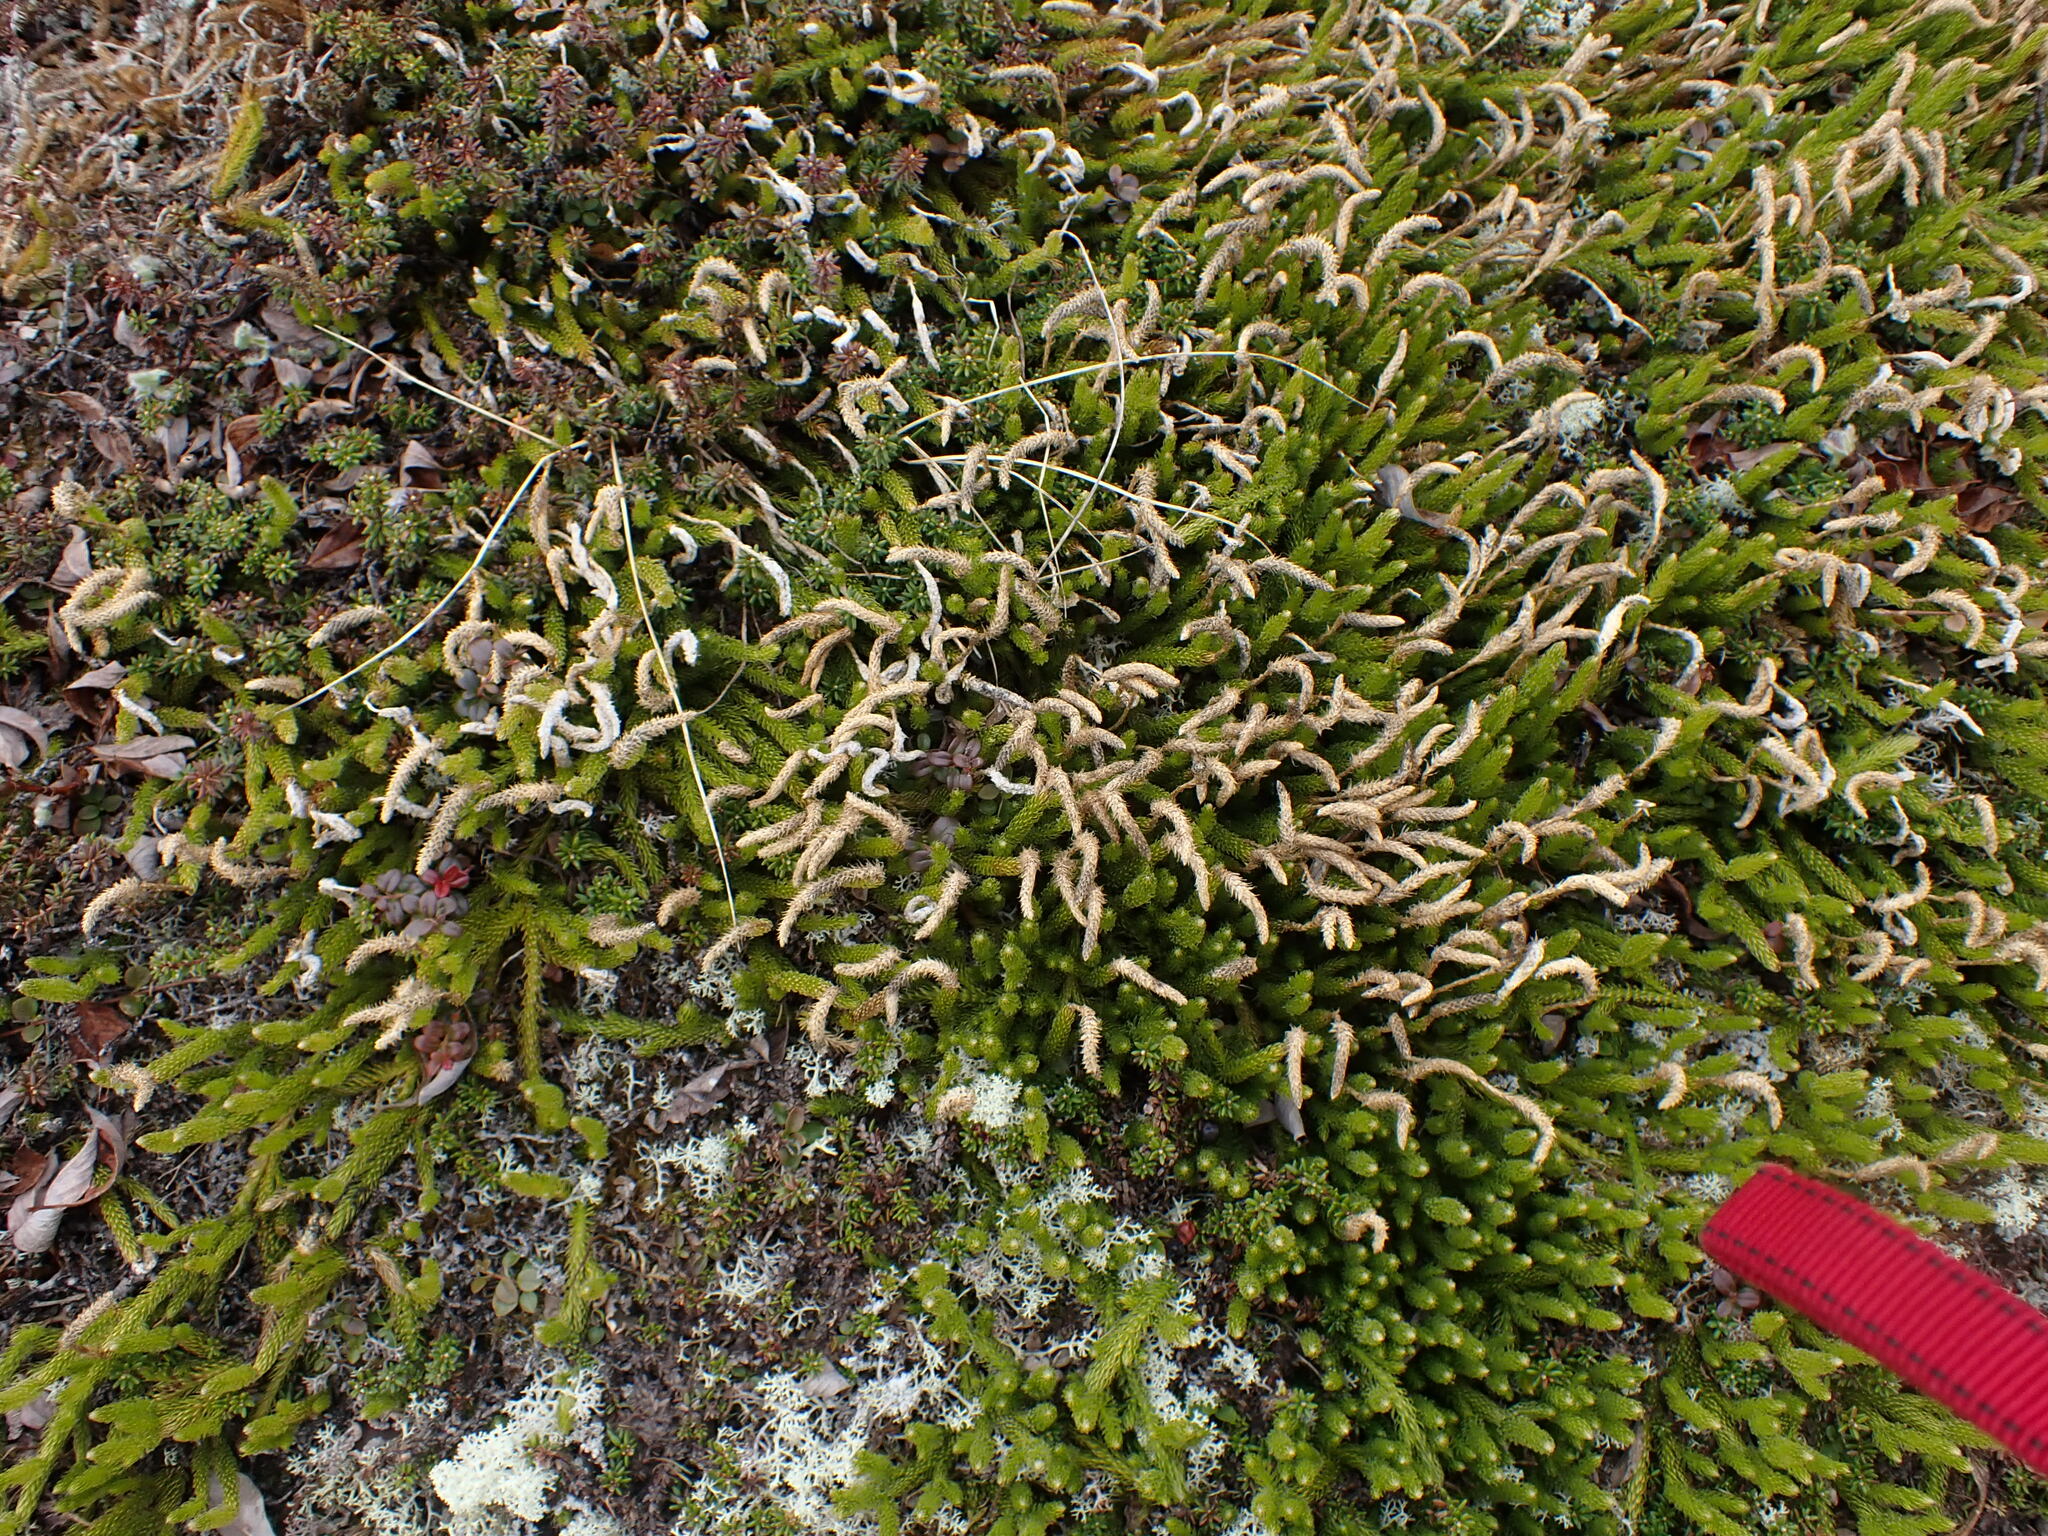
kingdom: Plantae
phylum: Tracheophyta
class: Lycopodiopsida
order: Lycopodiales
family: Lycopodiaceae
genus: Lycopodium
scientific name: Lycopodium lagopus
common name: One-cone clubmoss
